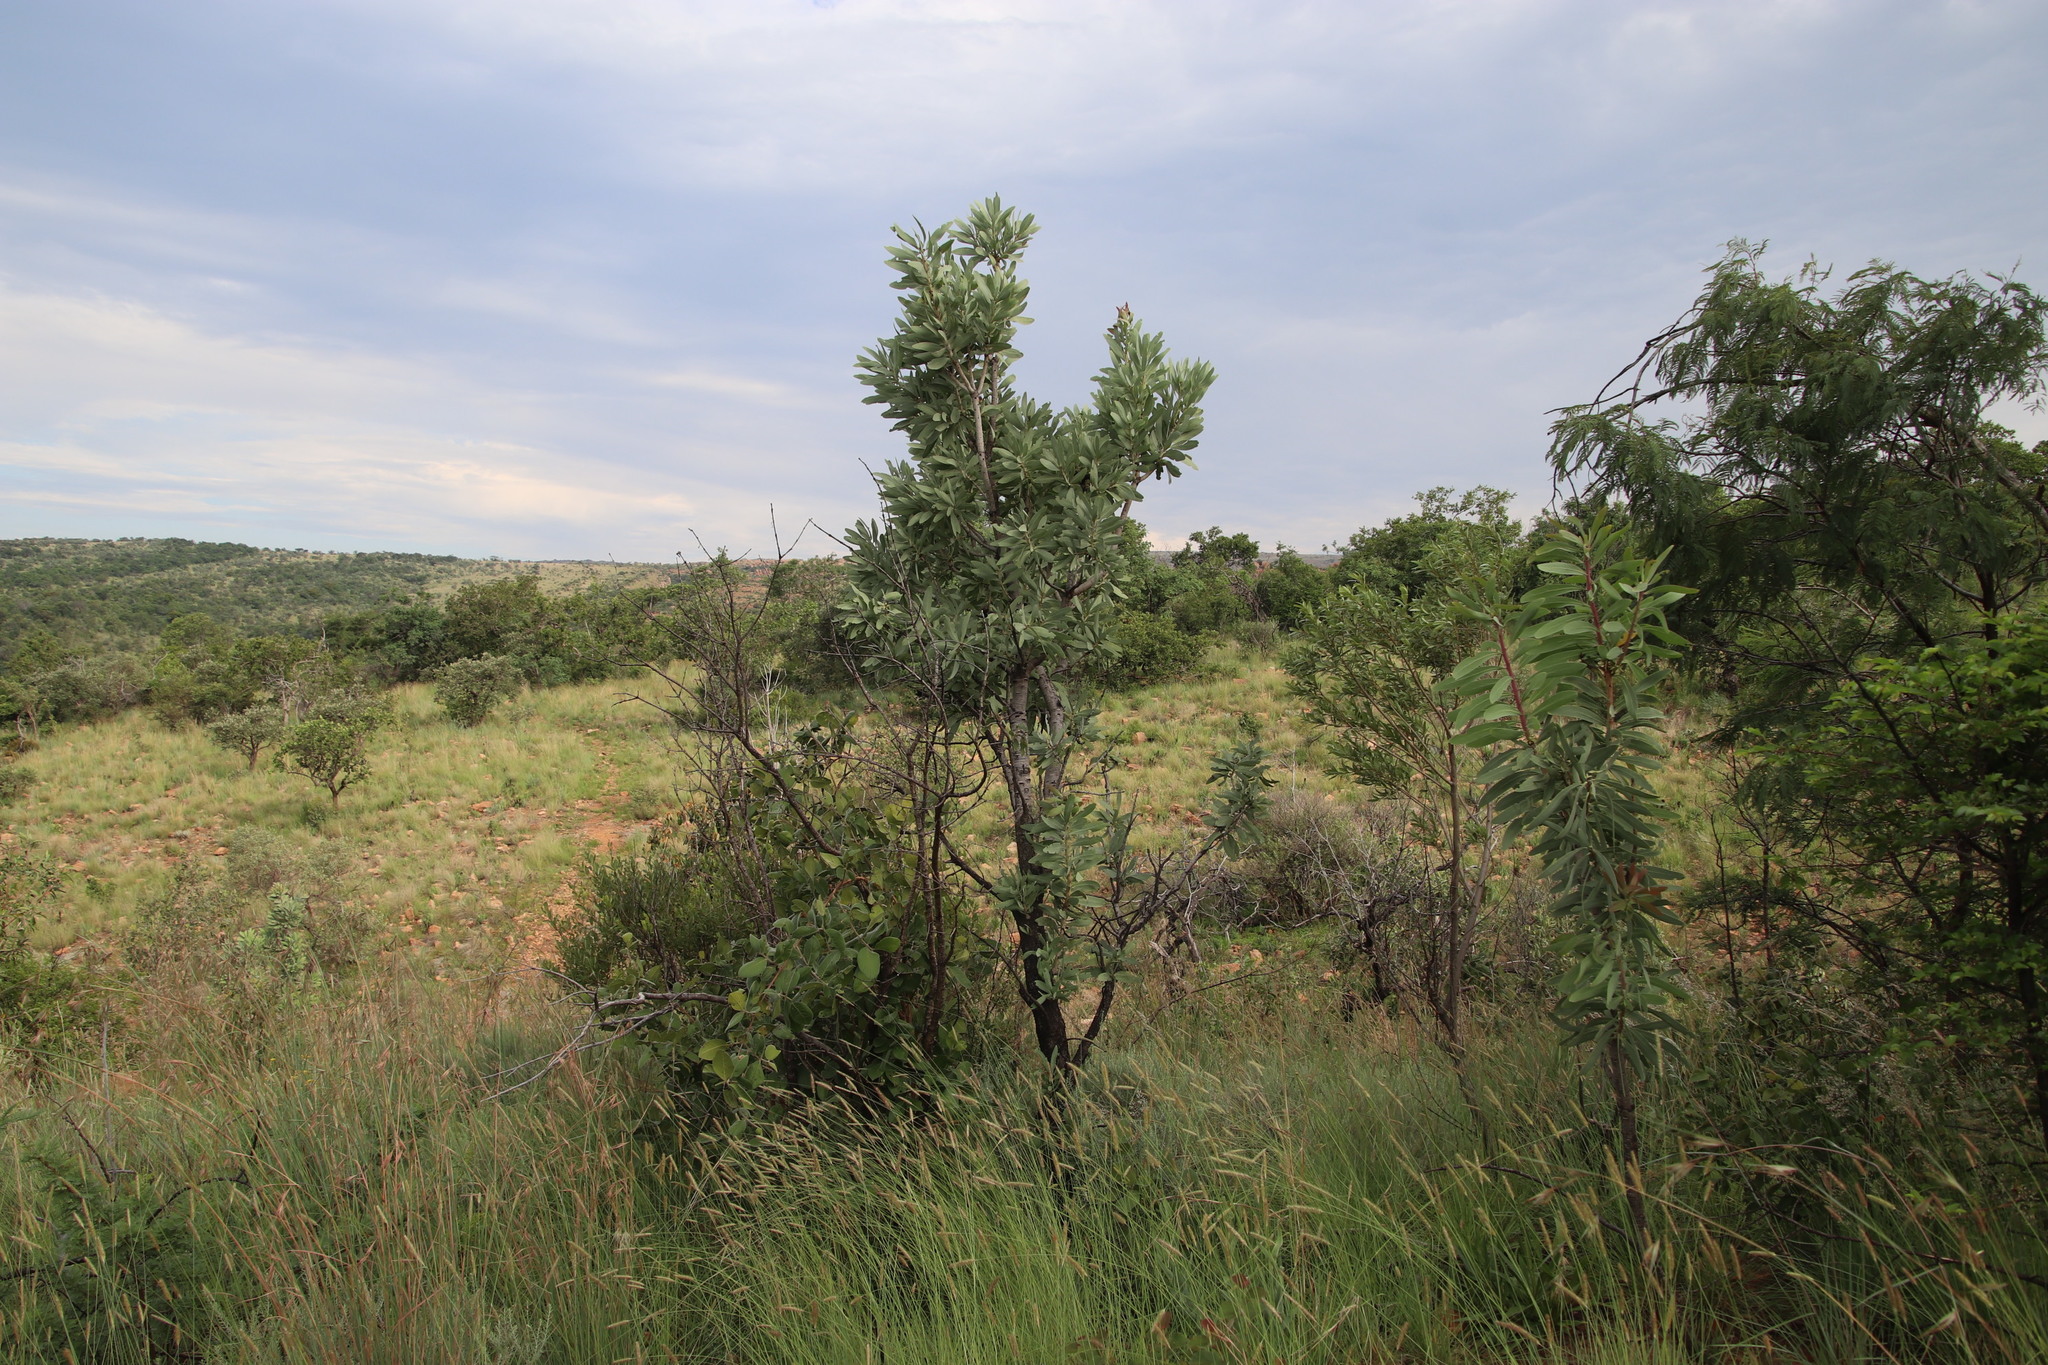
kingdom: Plantae
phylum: Tracheophyta
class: Magnoliopsida
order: Proteales
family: Proteaceae
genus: Protea
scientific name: Protea caffra
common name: Common sugarbush
